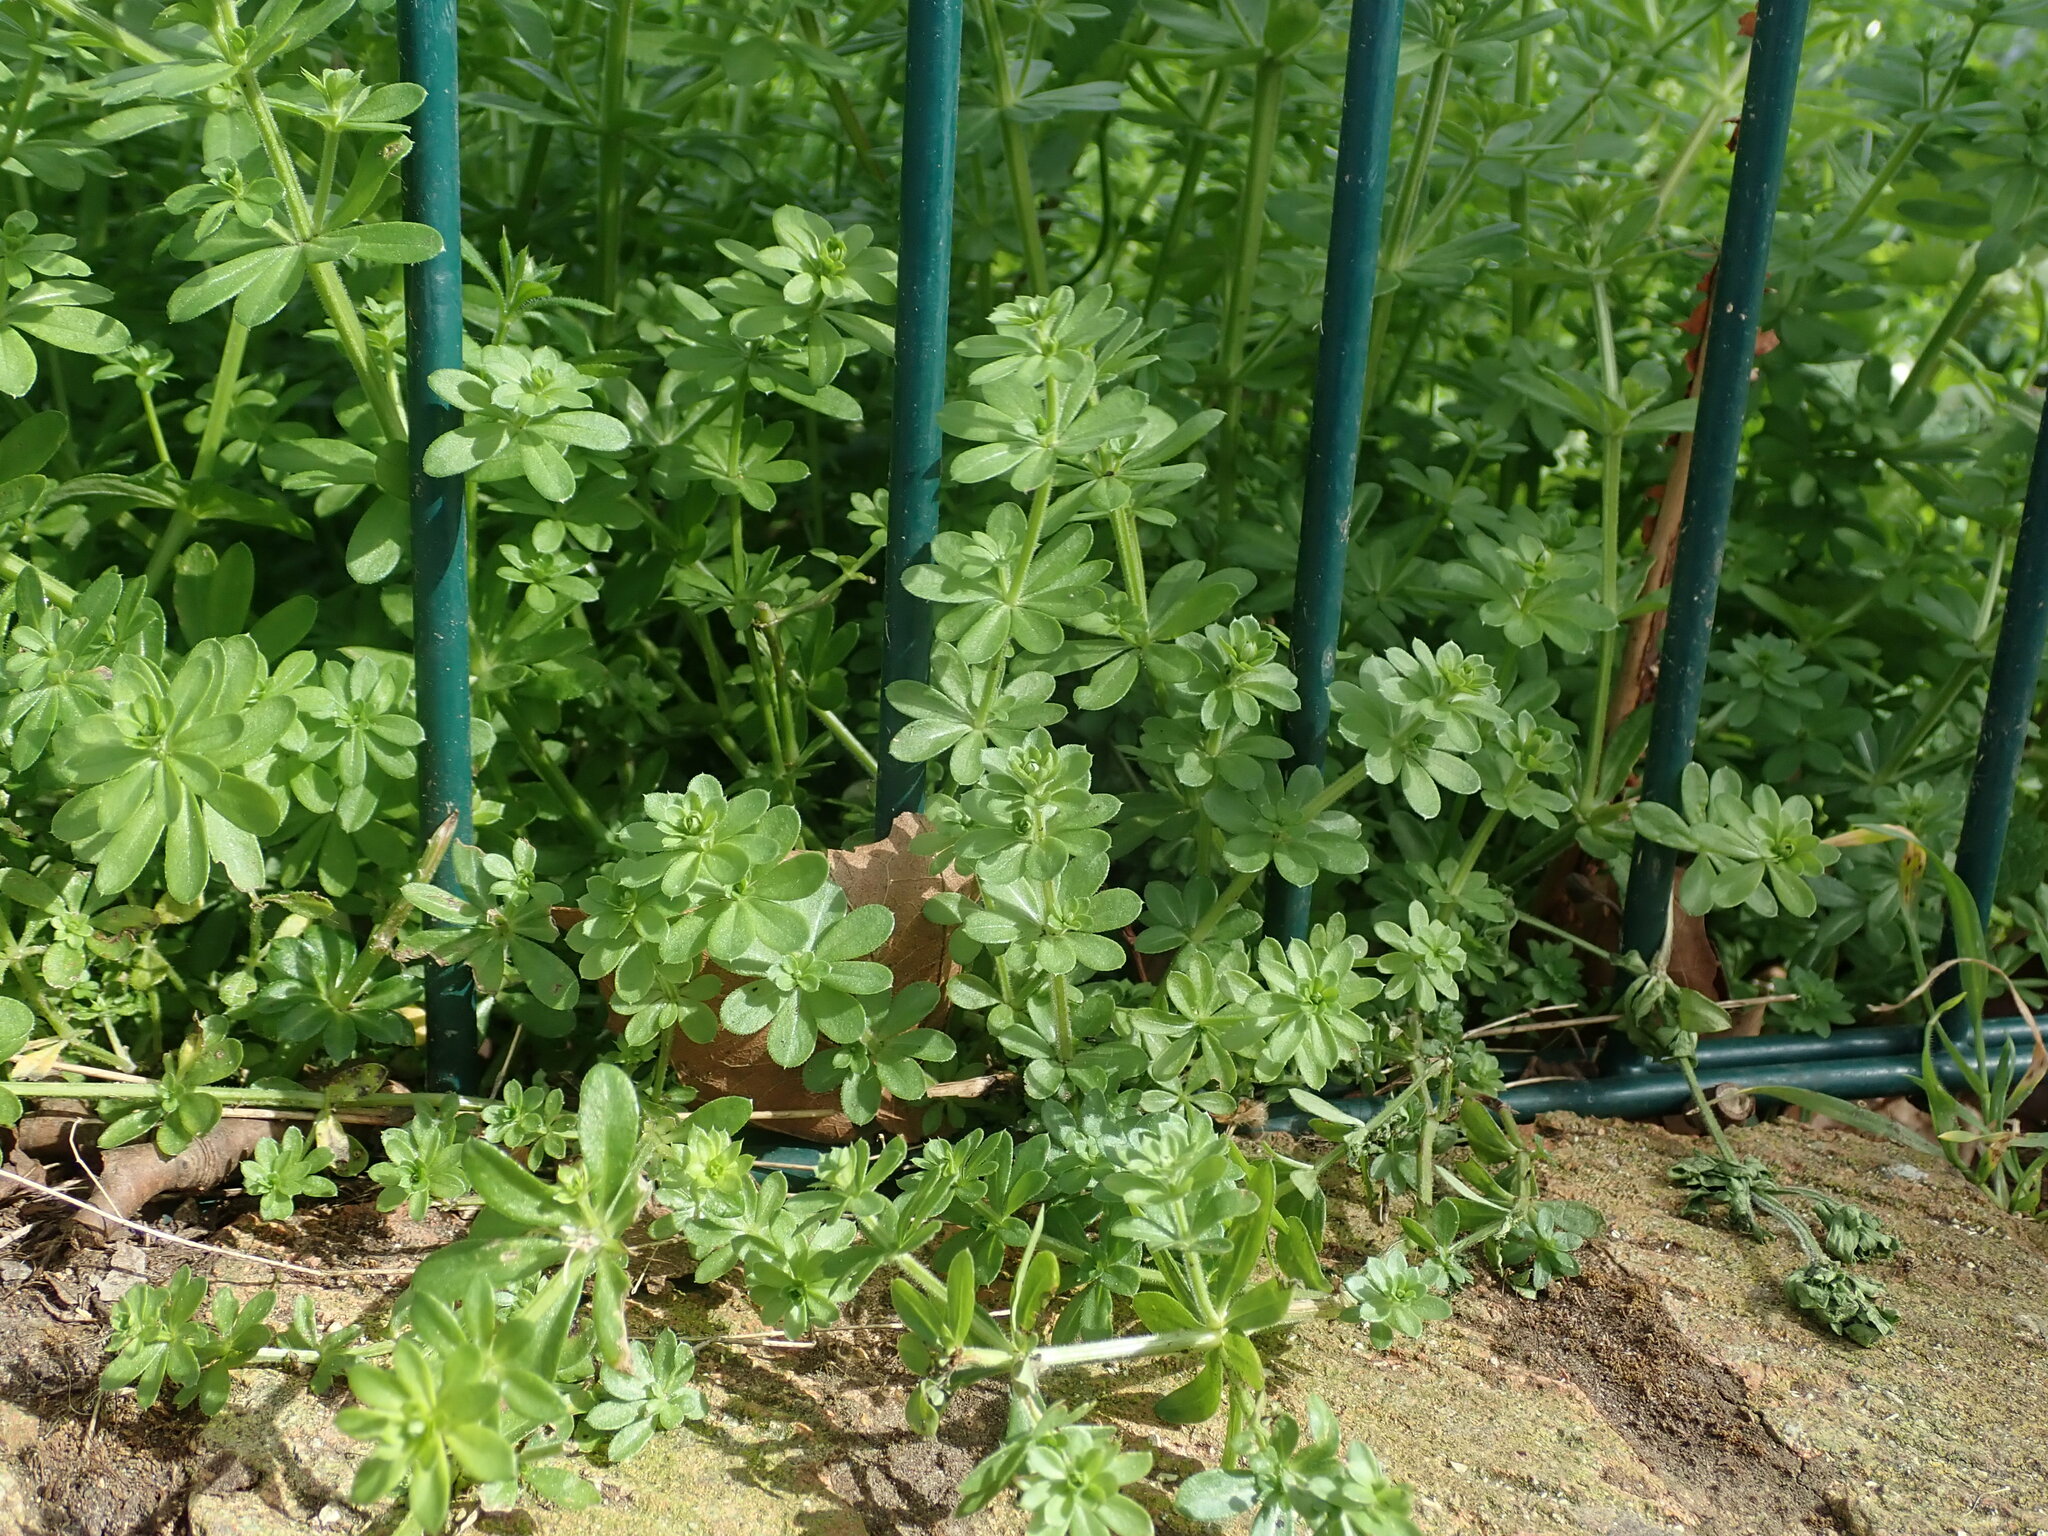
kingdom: Plantae
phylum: Tracheophyta
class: Magnoliopsida
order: Gentianales
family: Rubiaceae
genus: Galium
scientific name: Galium album
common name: White bedstraw
